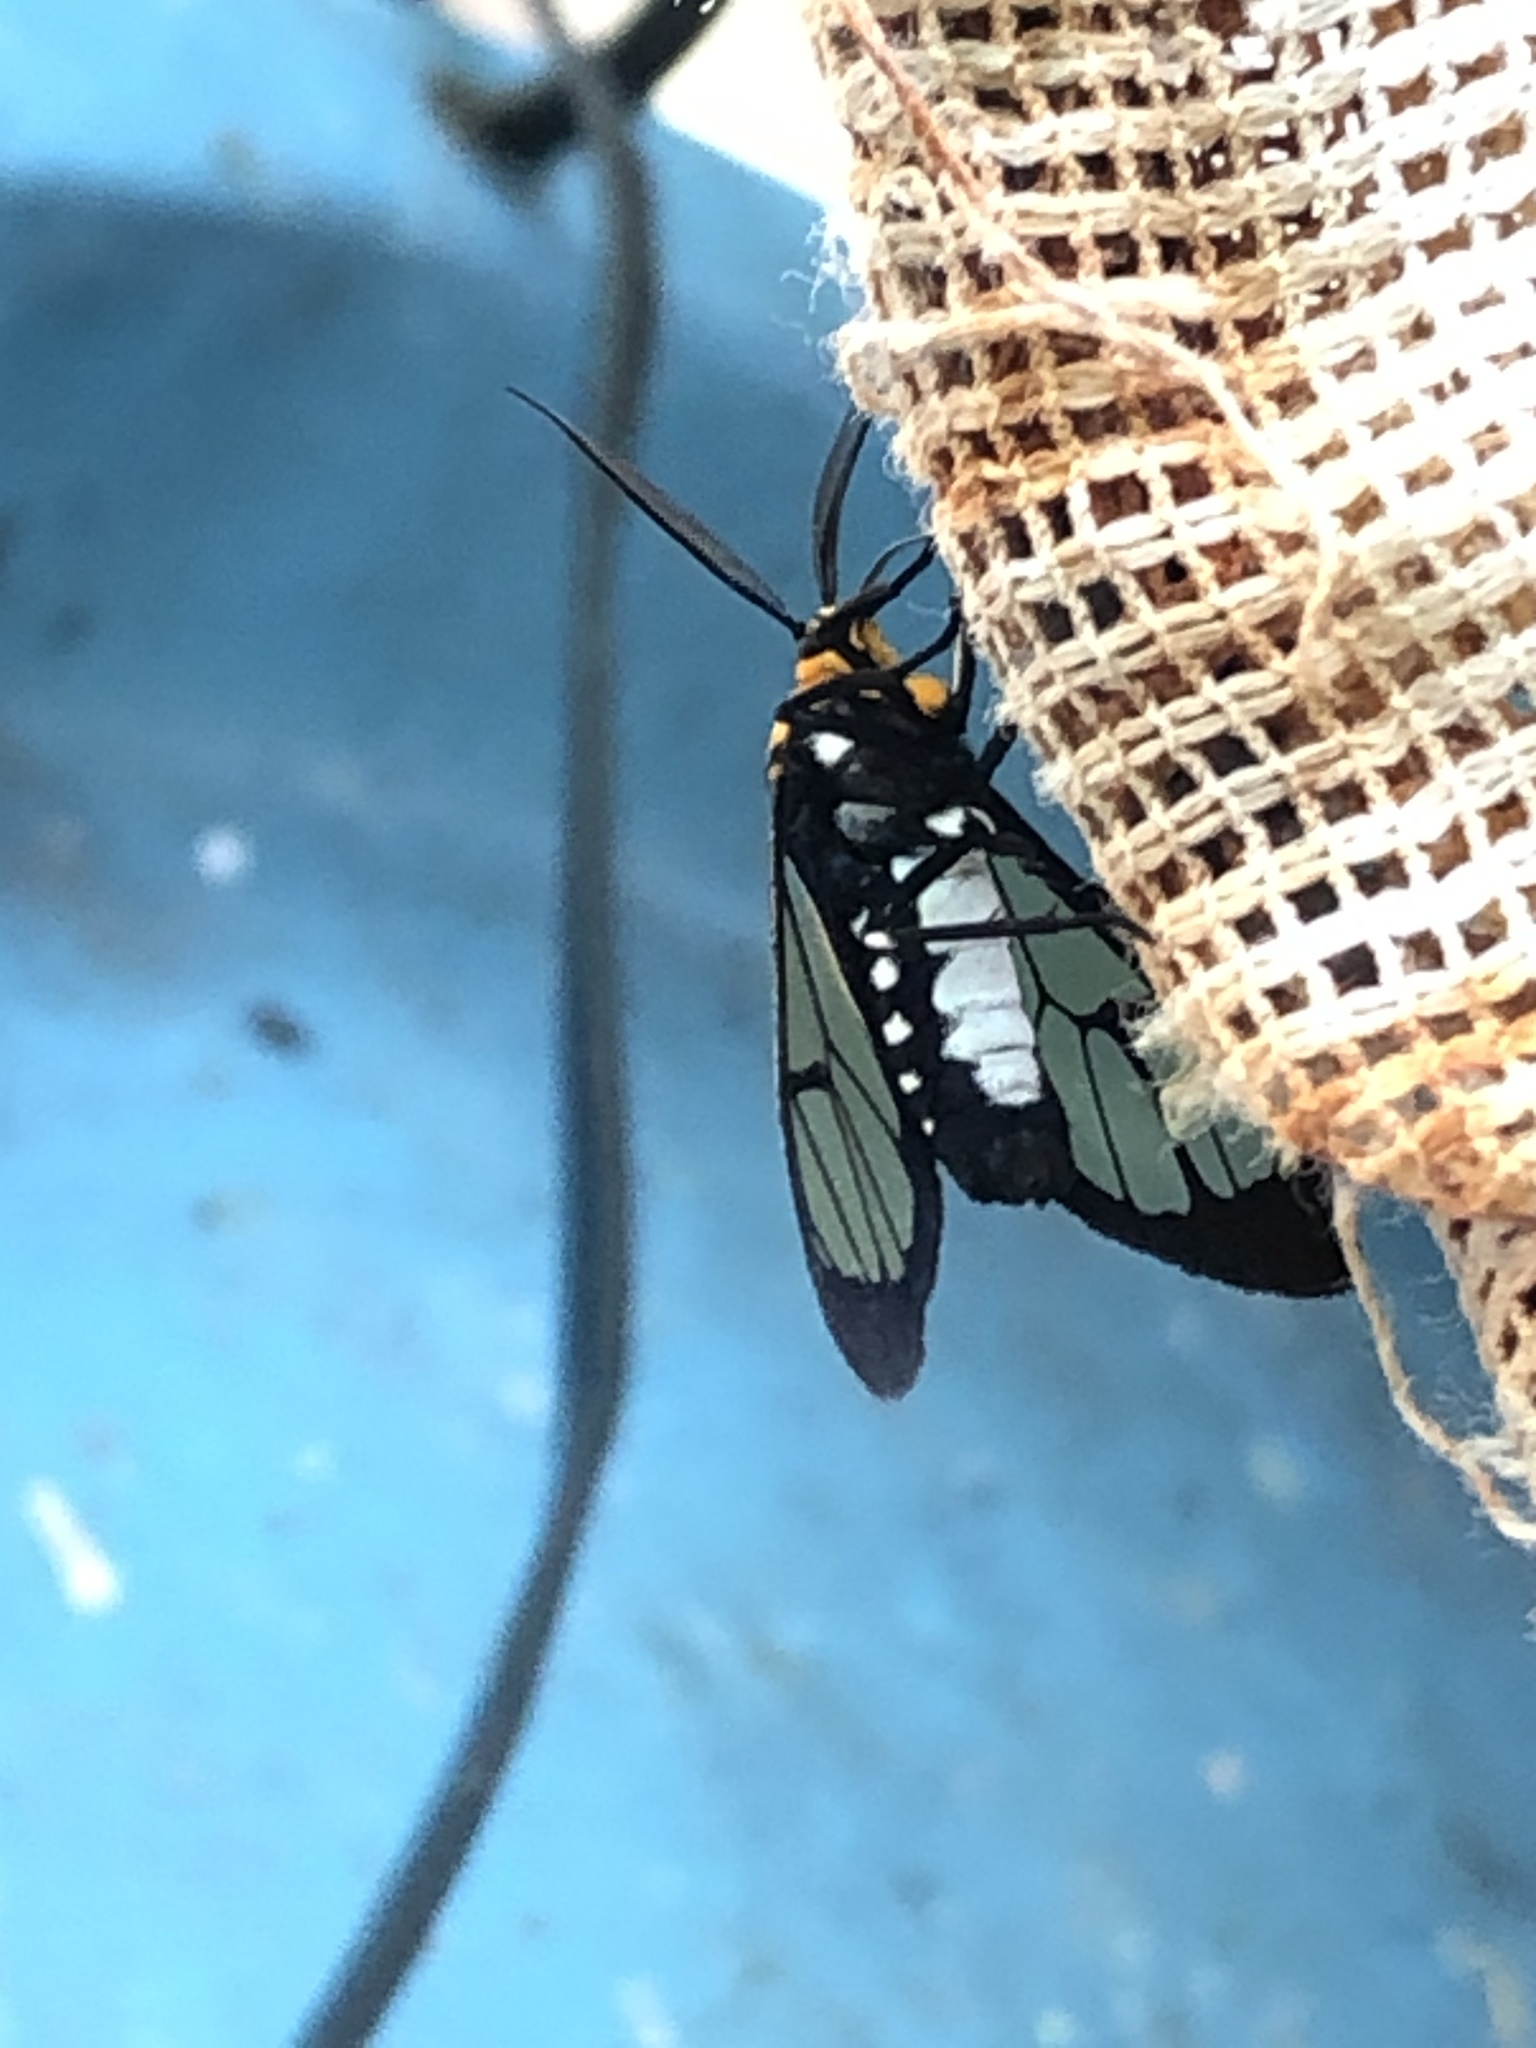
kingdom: Animalia
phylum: Arthropoda
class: Insecta
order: Lepidoptera
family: Erebidae
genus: Paraethria
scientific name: Paraethria flavosignata
